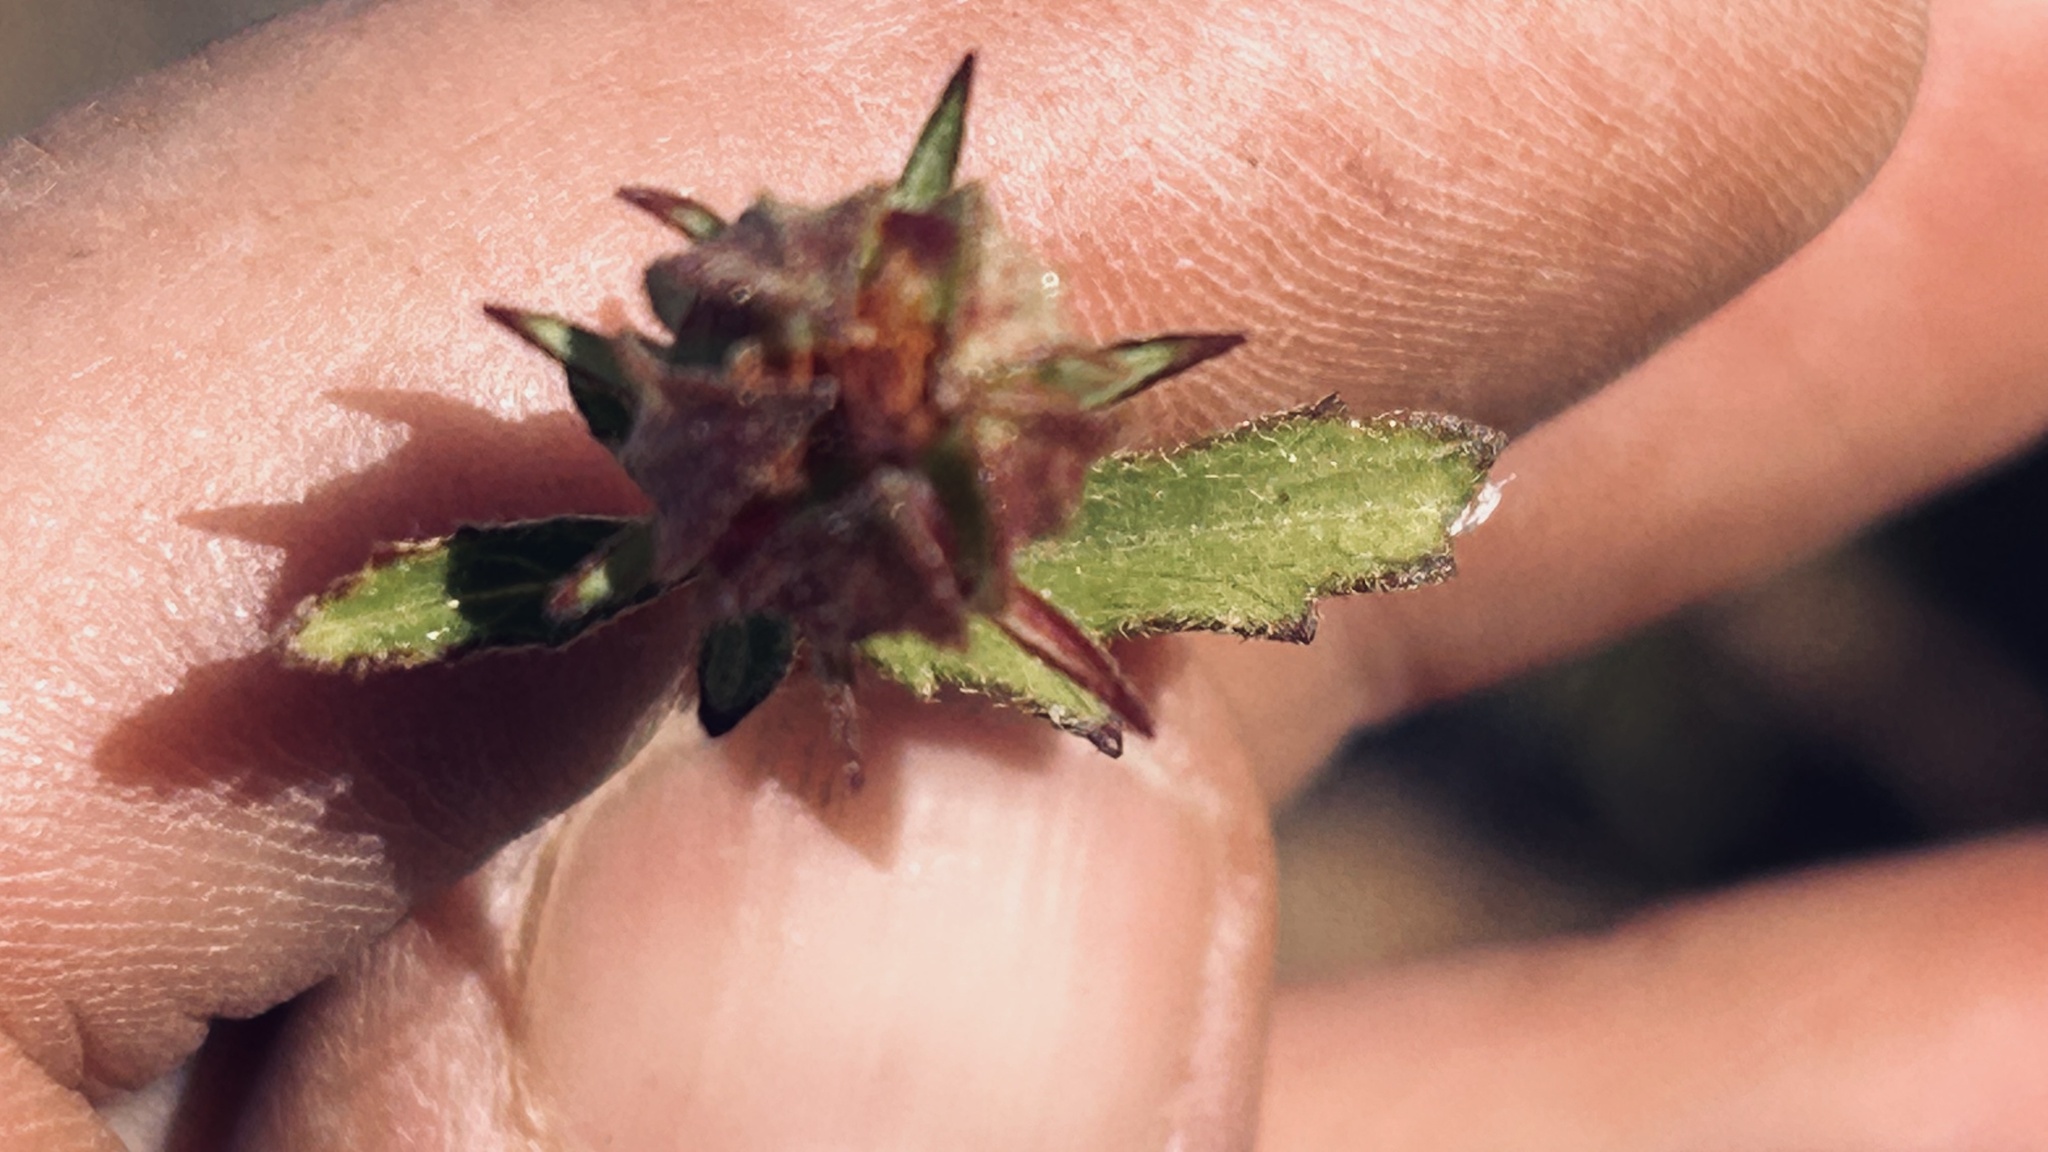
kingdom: Plantae
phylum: Tracheophyta
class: Magnoliopsida
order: Malvales
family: Malvaceae
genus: Hibiscus
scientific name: Hibiscus pusillus
